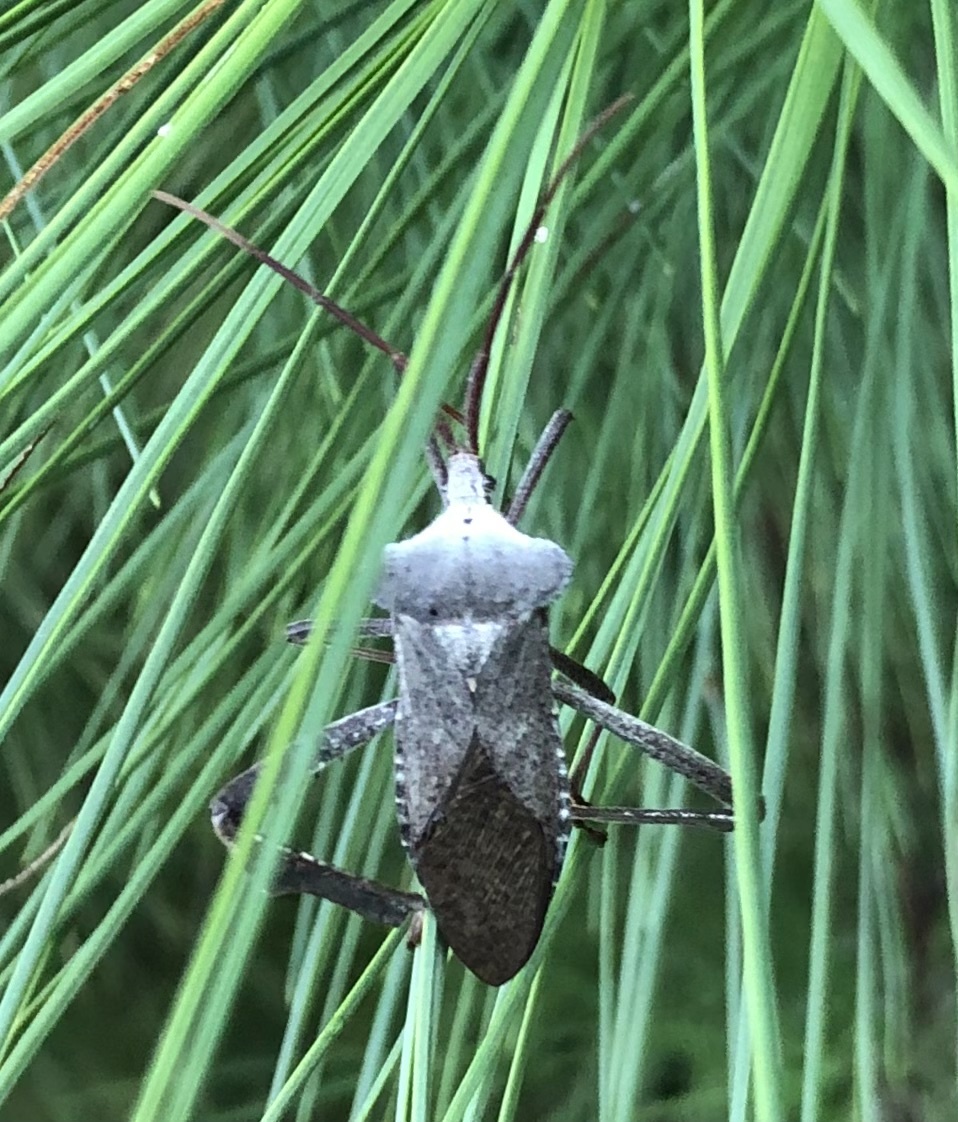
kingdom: Animalia
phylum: Arthropoda
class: Insecta
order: Hemiptera
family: Coreidae
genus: Acanthocephala
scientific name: Acanthocephala declivis
